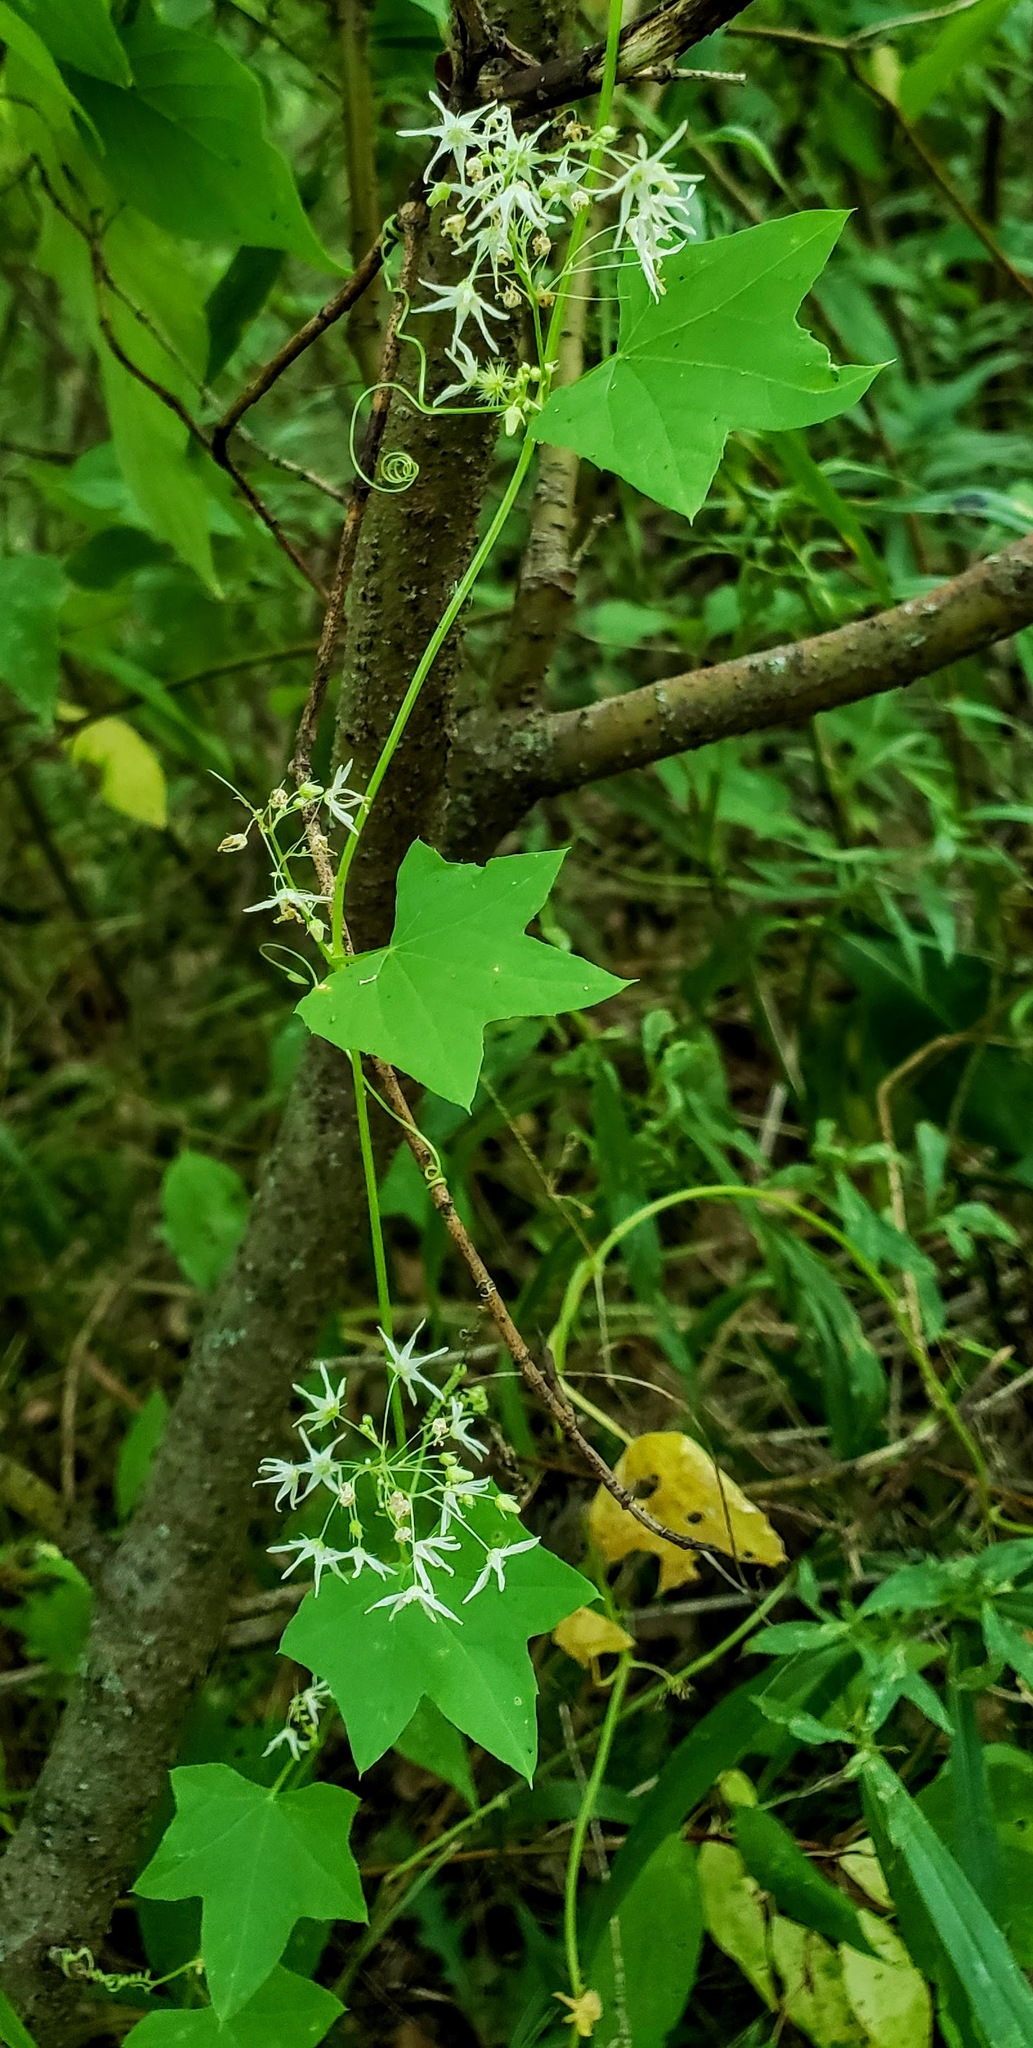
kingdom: Plantae
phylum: Tracheophyta
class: Magnoliopsida
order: Cucurbitales
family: Cucurbitaceae
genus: Echinocystis
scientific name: Echinocystis lobata
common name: Wild cucumber
